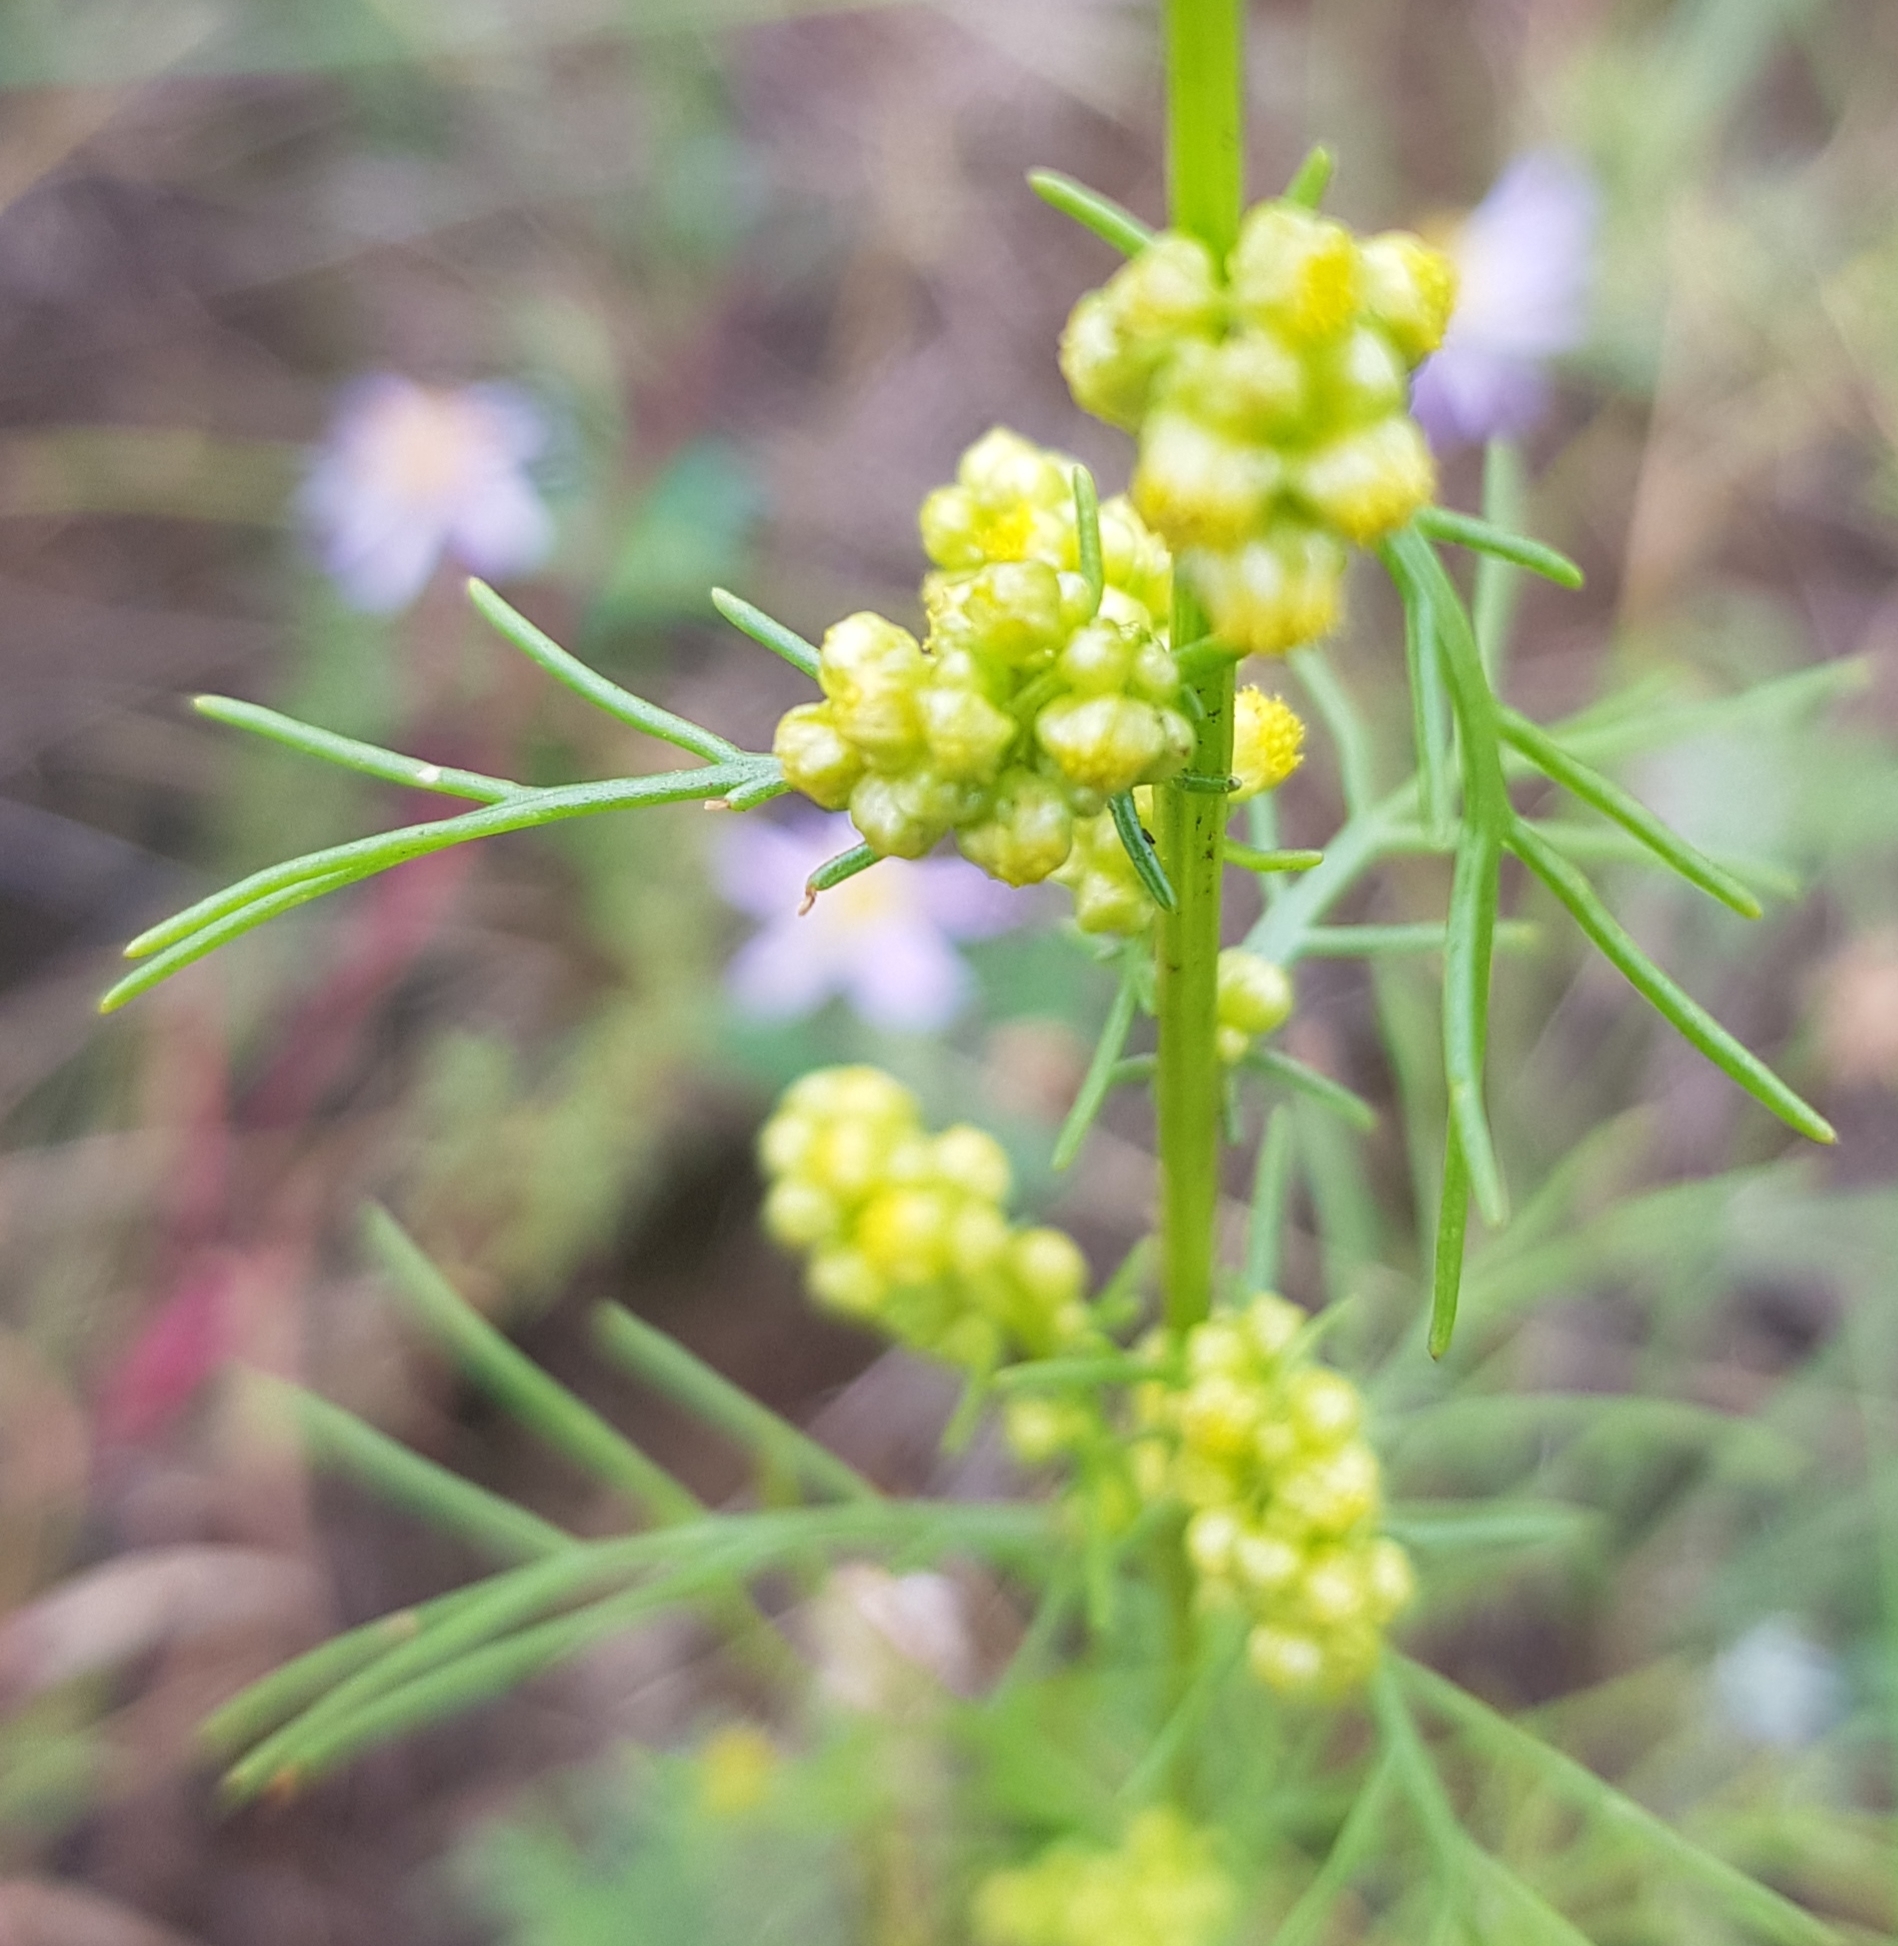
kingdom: Plantae
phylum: Tracheophyta
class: Magnoliopsida
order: Asterales
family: Asteraceae
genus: Artemisia
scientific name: Artemisia palustris
